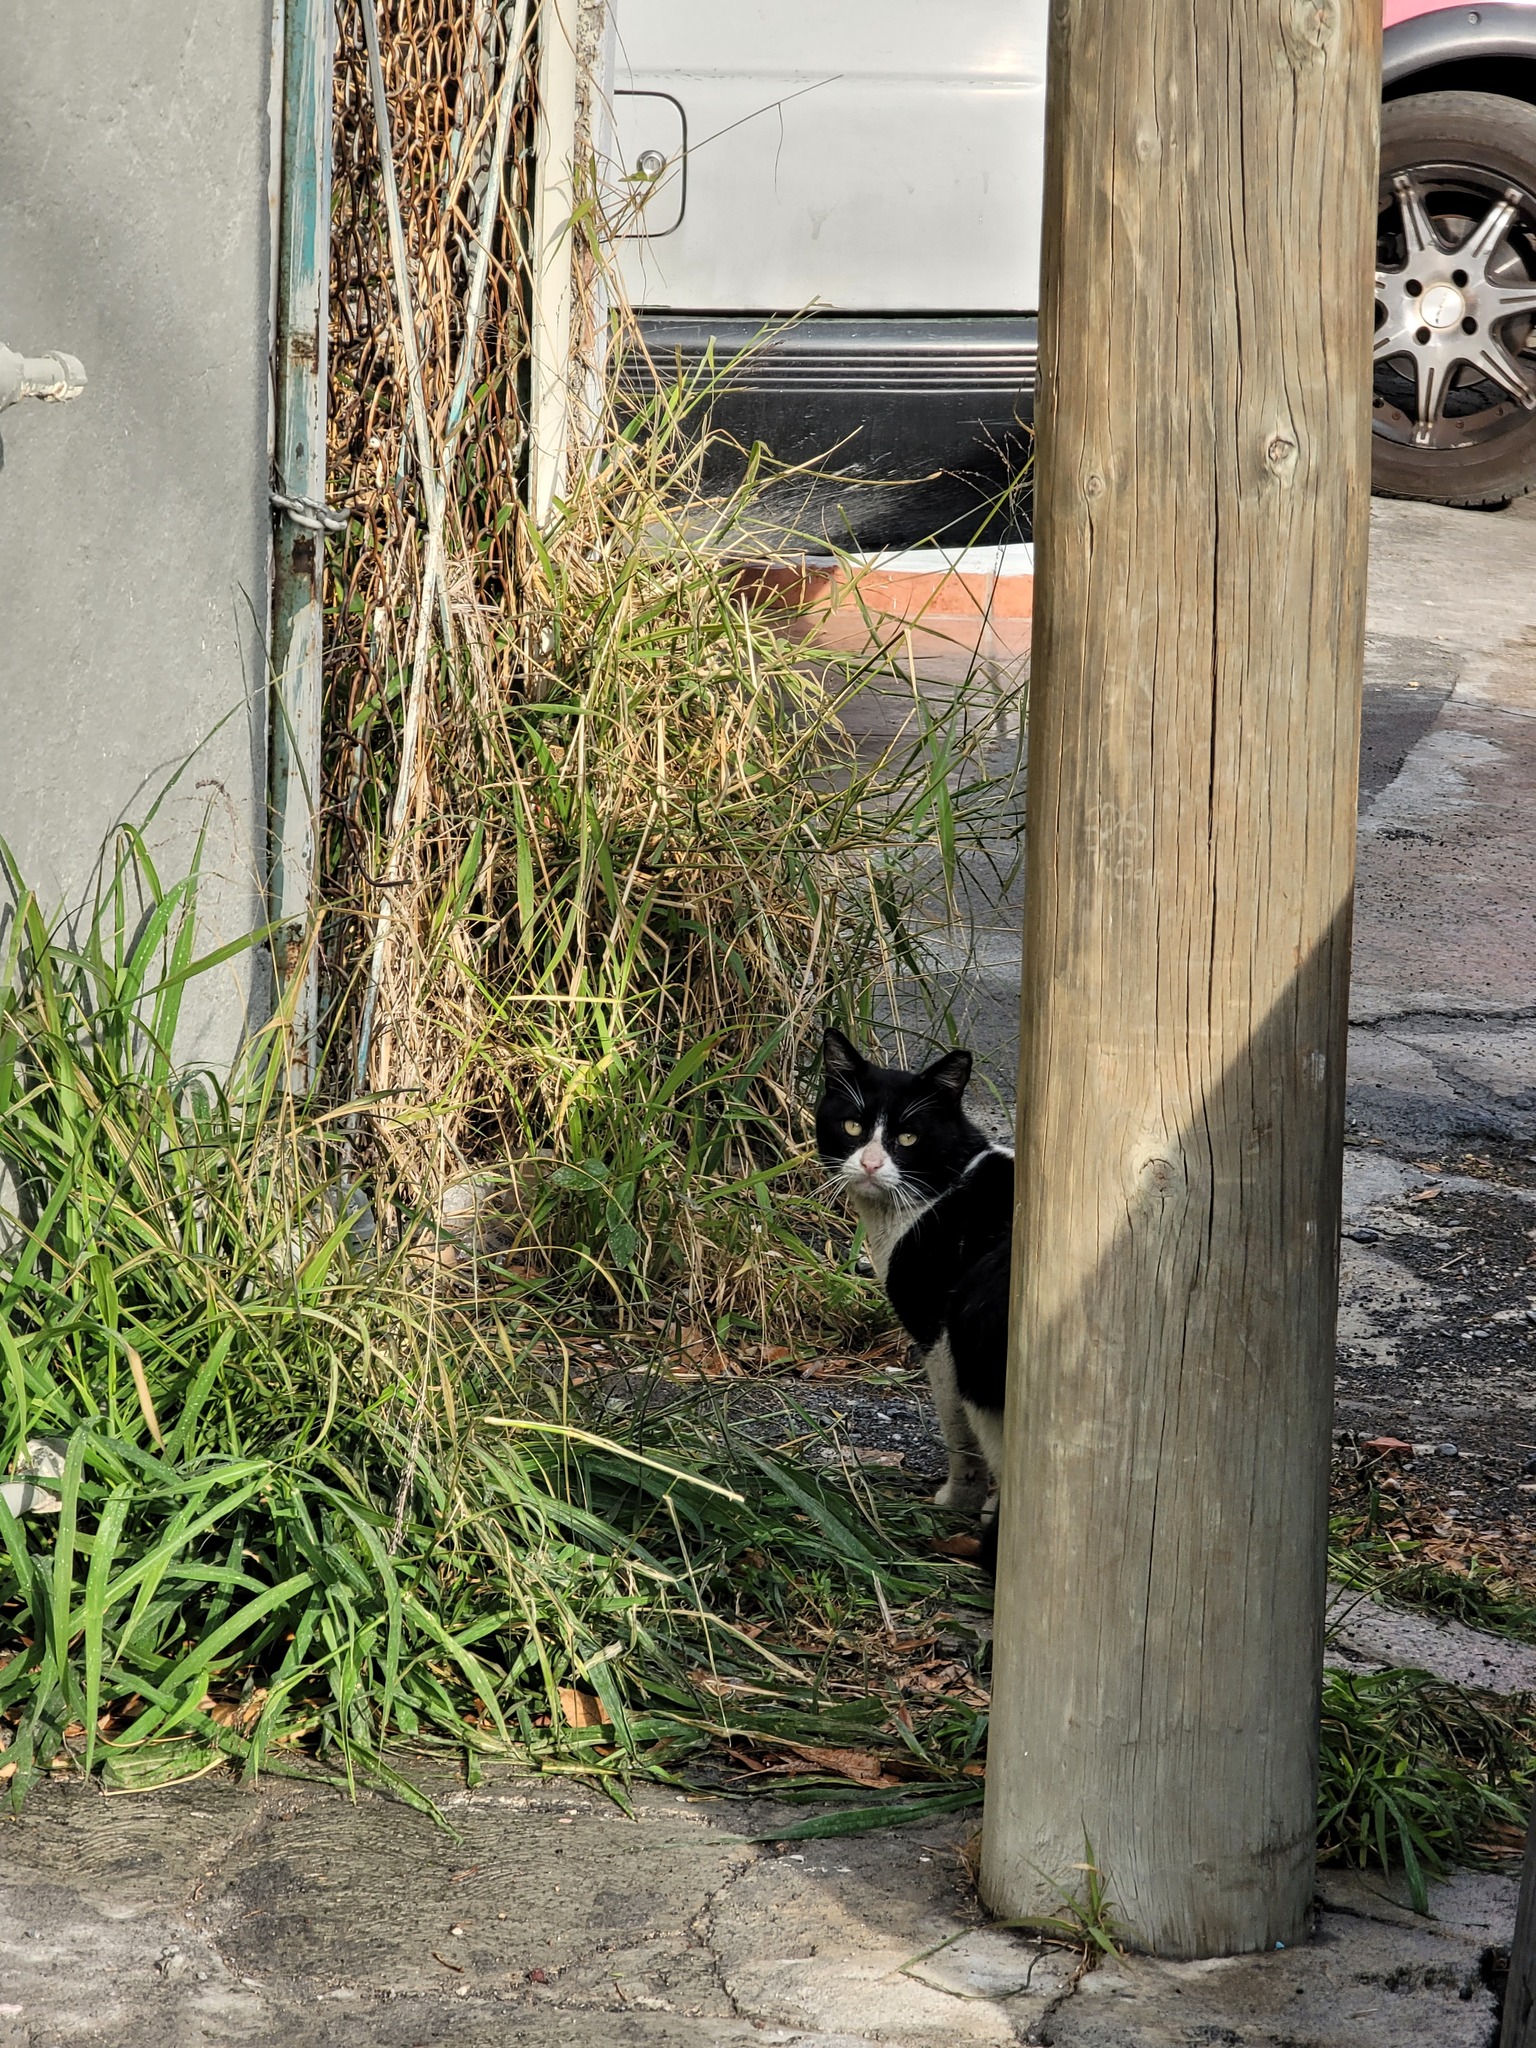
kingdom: Animalia
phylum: Chordata
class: Mammalia
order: Carnivora
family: Felidae
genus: Felis
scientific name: Felis catus
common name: Domestic cat
